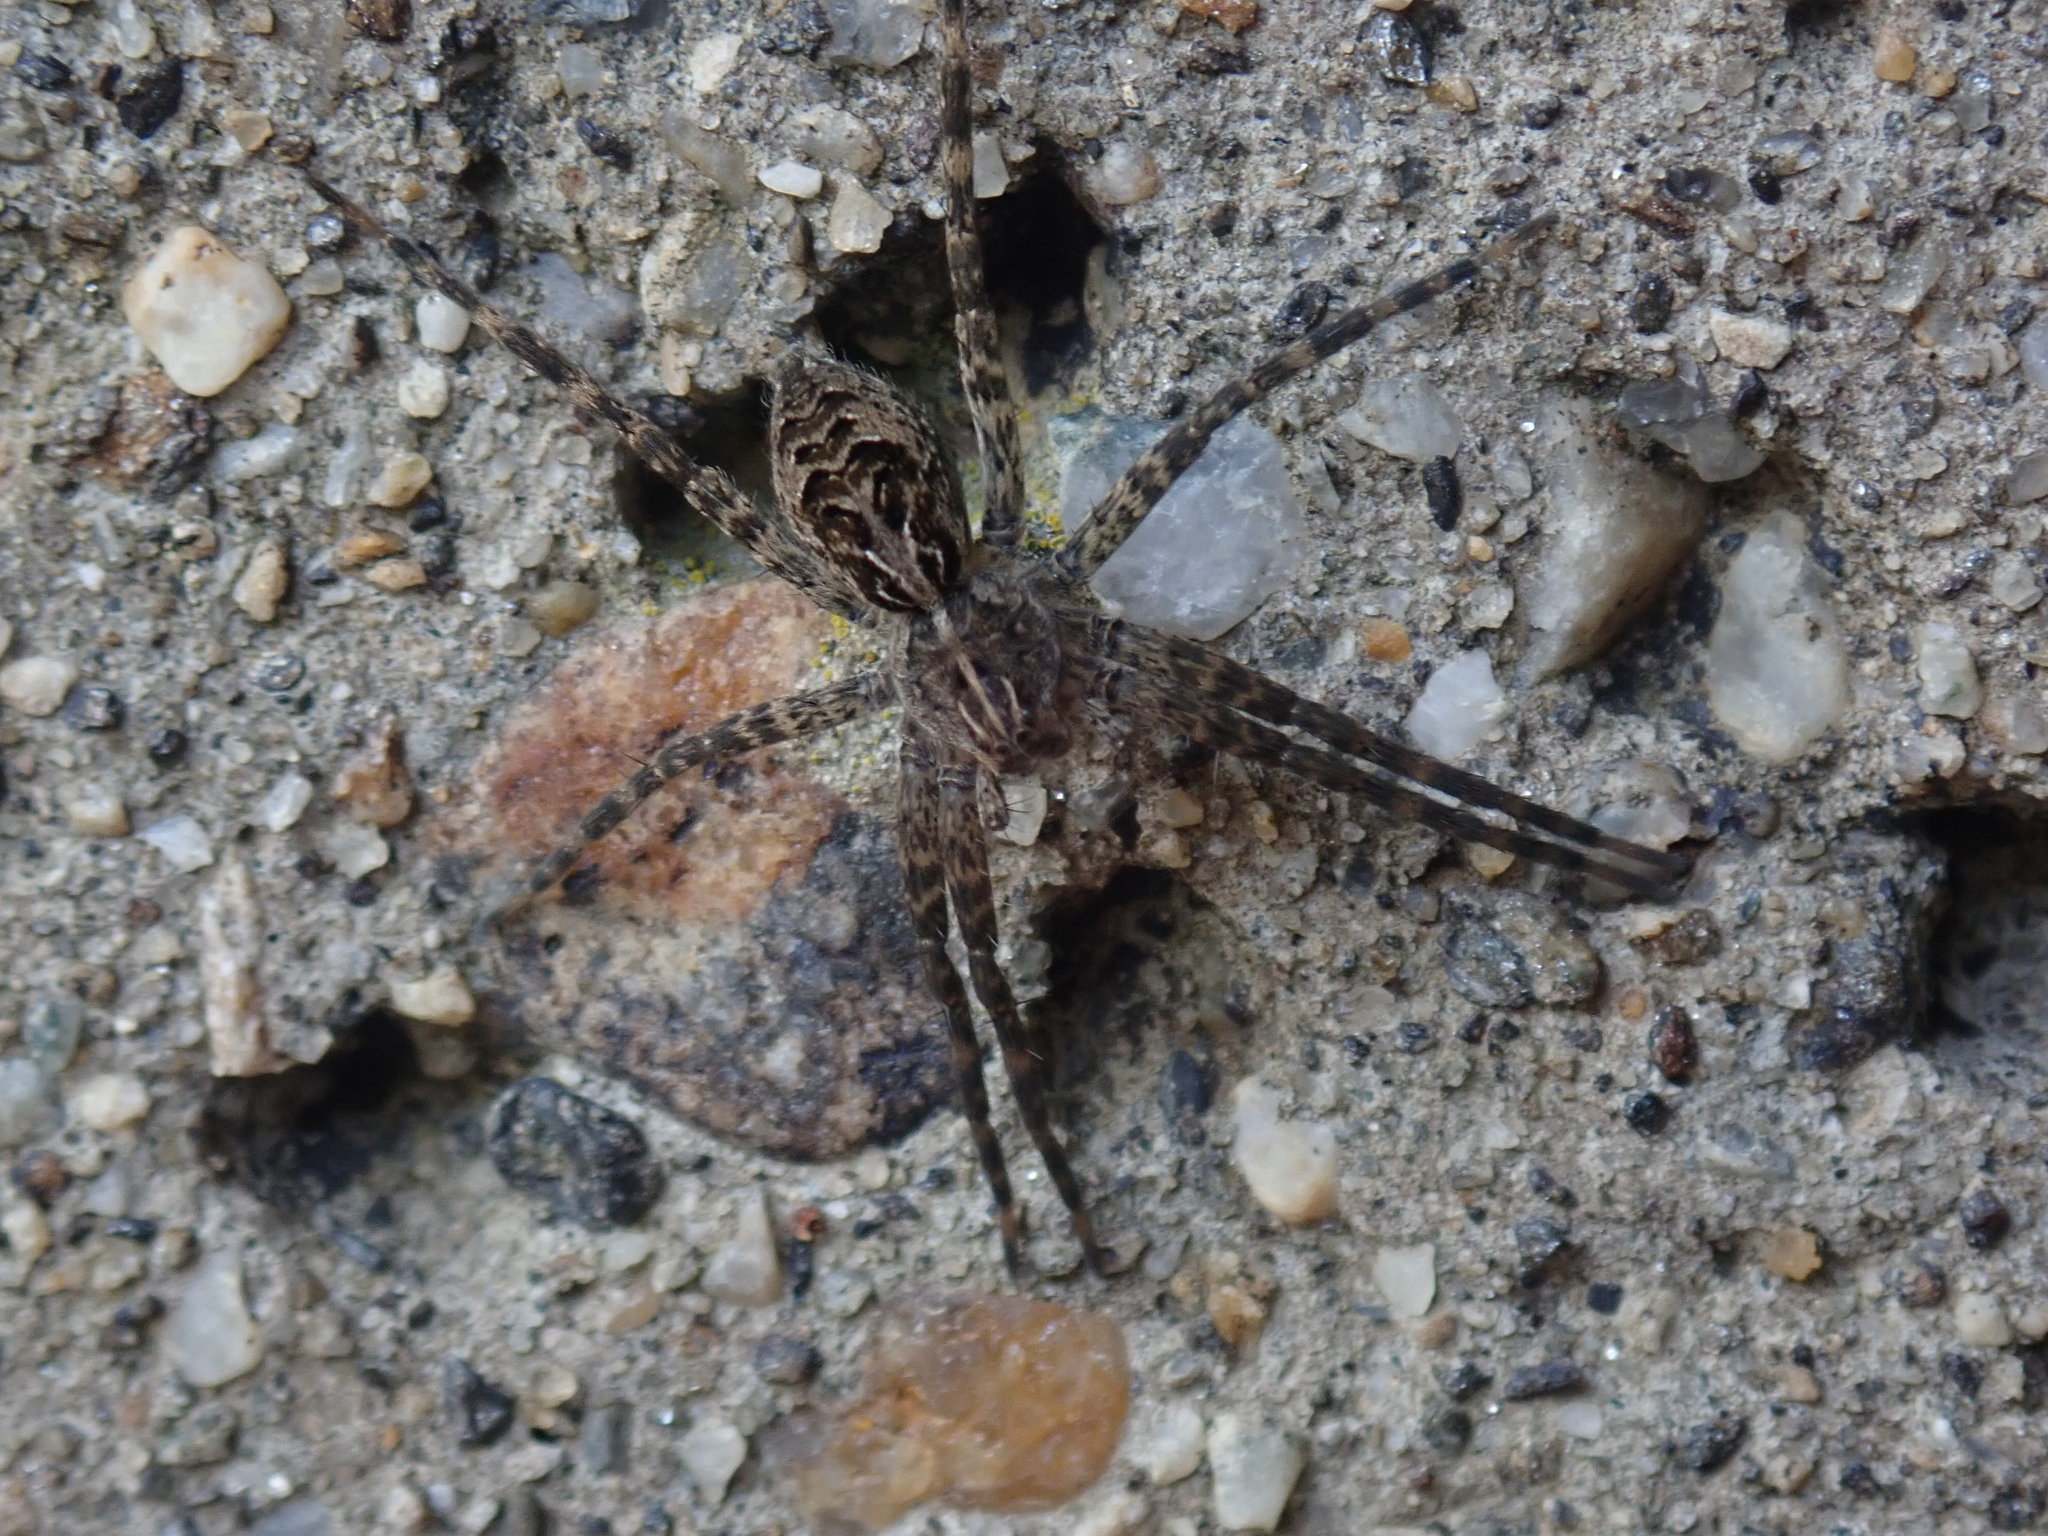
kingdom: Animalia
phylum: Arthropoda
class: Arachnida
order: Araneae
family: Pisauridae
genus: Dolomedes
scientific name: Dolomedes scriptus
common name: Striped fishing spider
